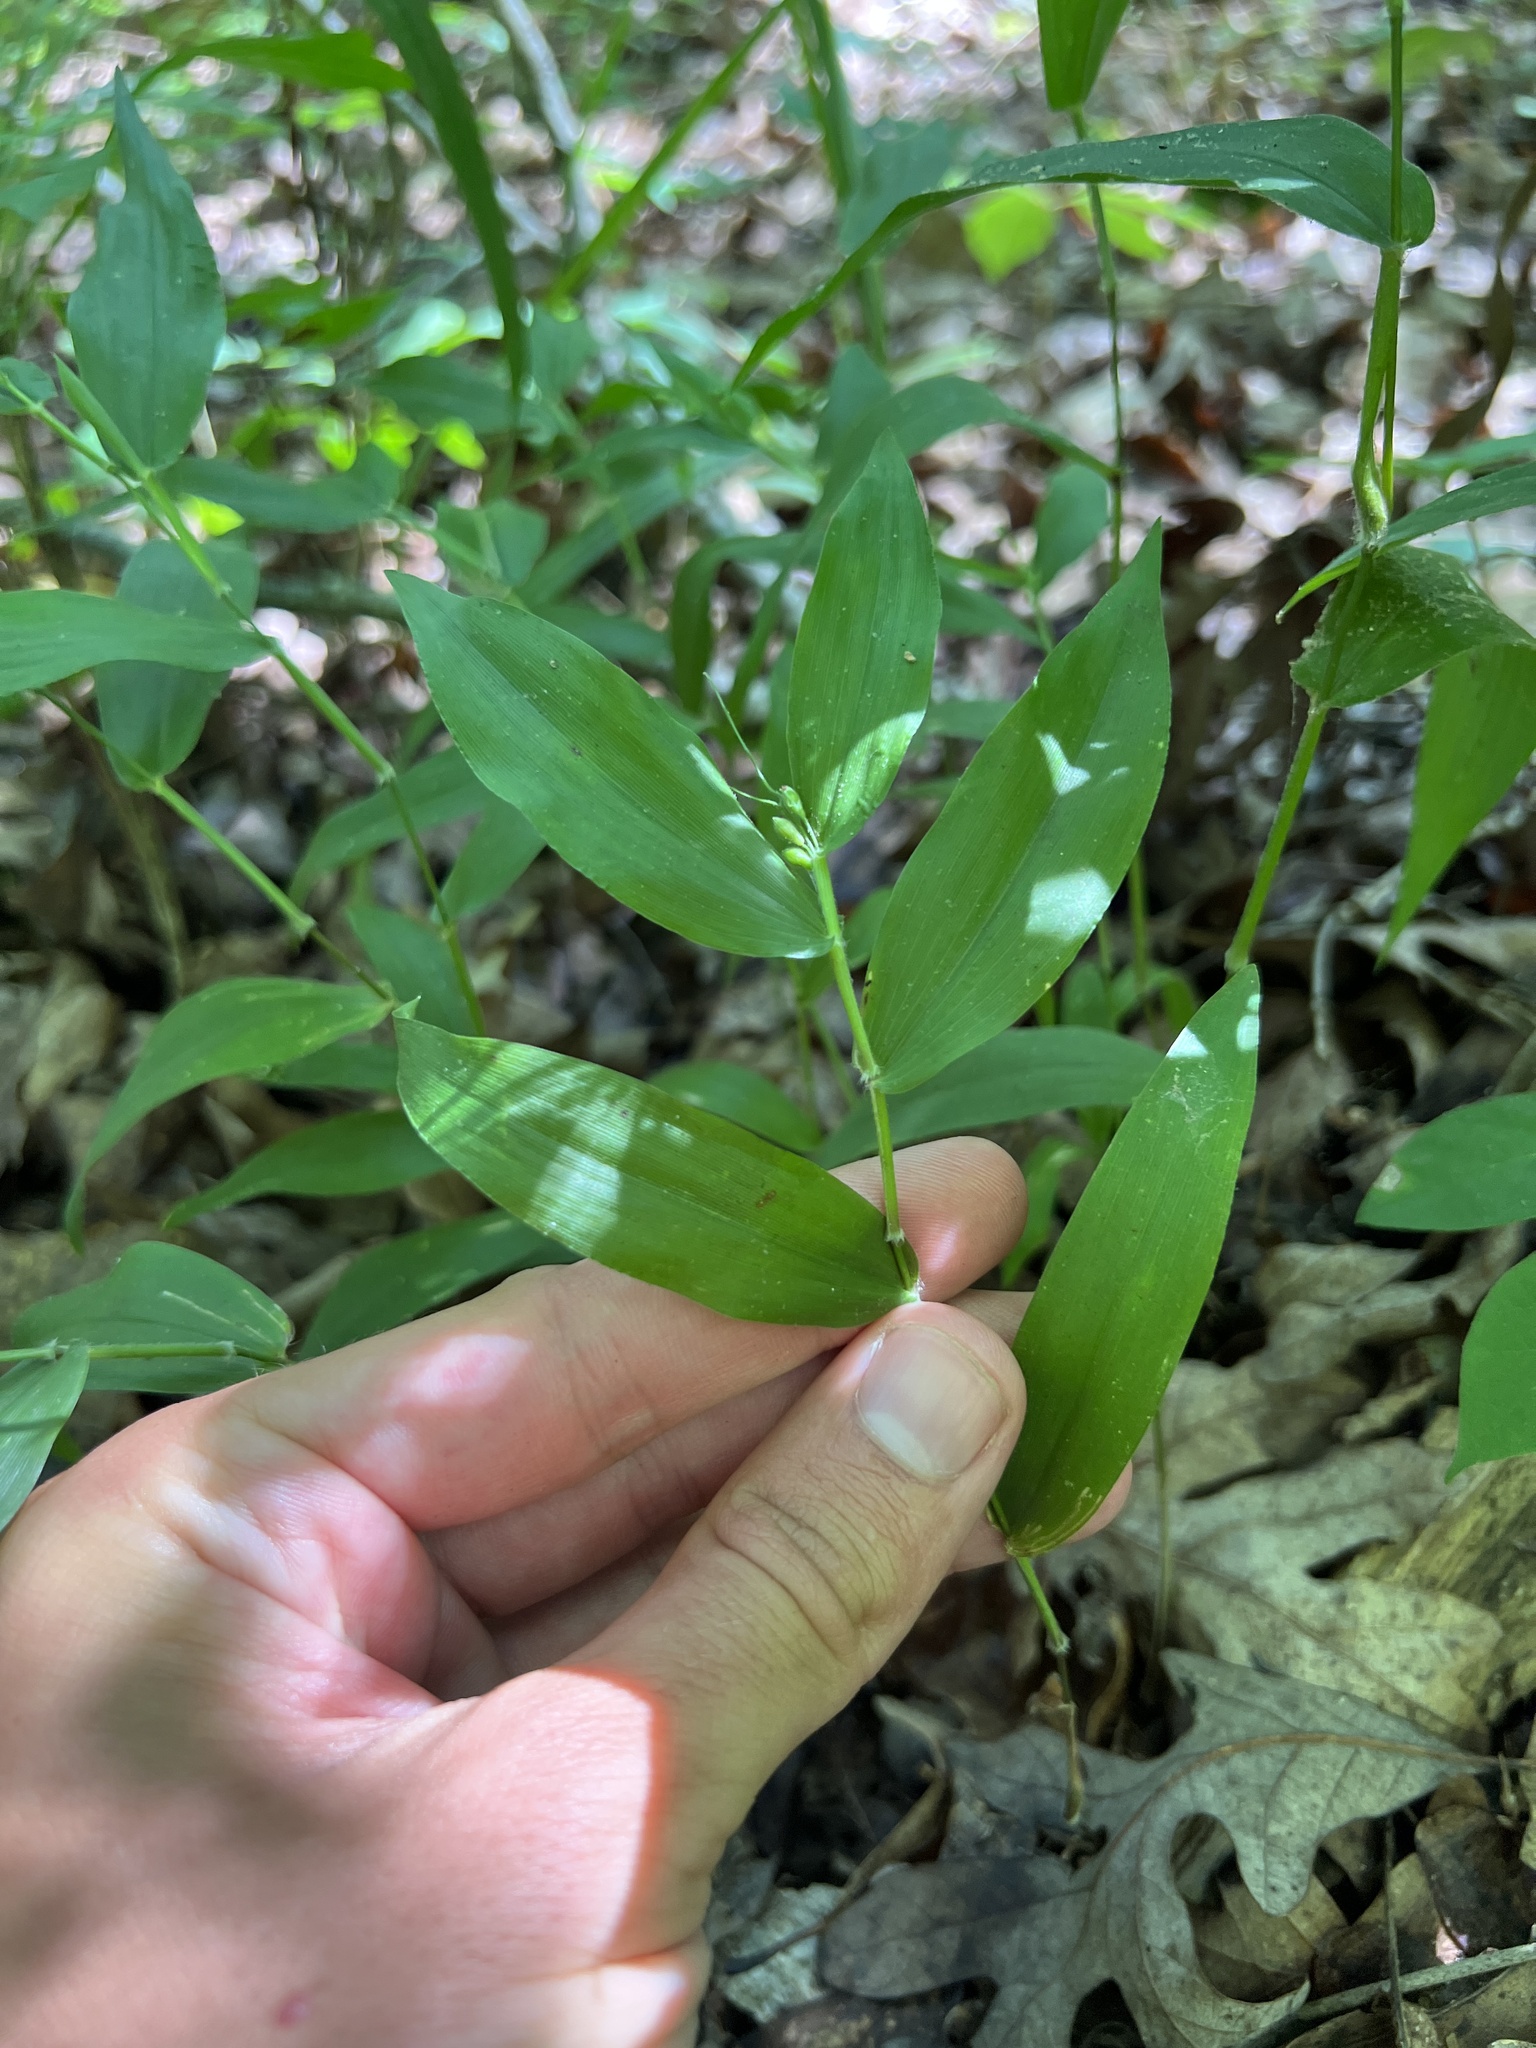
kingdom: Plantae
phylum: Tracheophyta
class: Liliopsida
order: Poales
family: Poaceae
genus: Dichanthelium
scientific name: Dichanthelium boscii
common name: Bosc's panic grass
